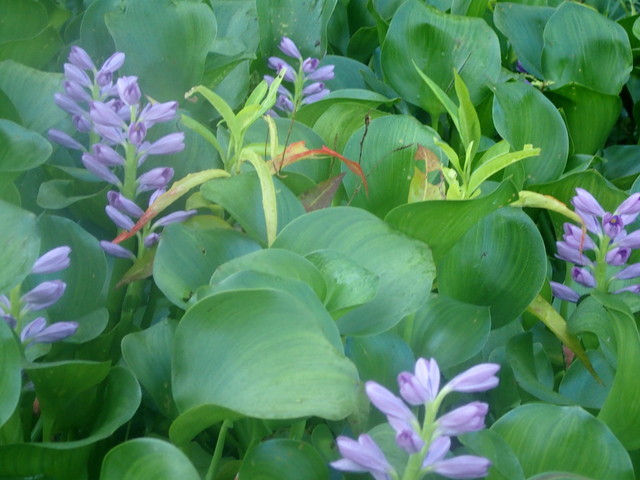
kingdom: Plantae
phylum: Tracheophyta
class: Liliopsida
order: Commelinales
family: Pontederiaceae
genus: Pontederia
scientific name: Pontederia crassipes
